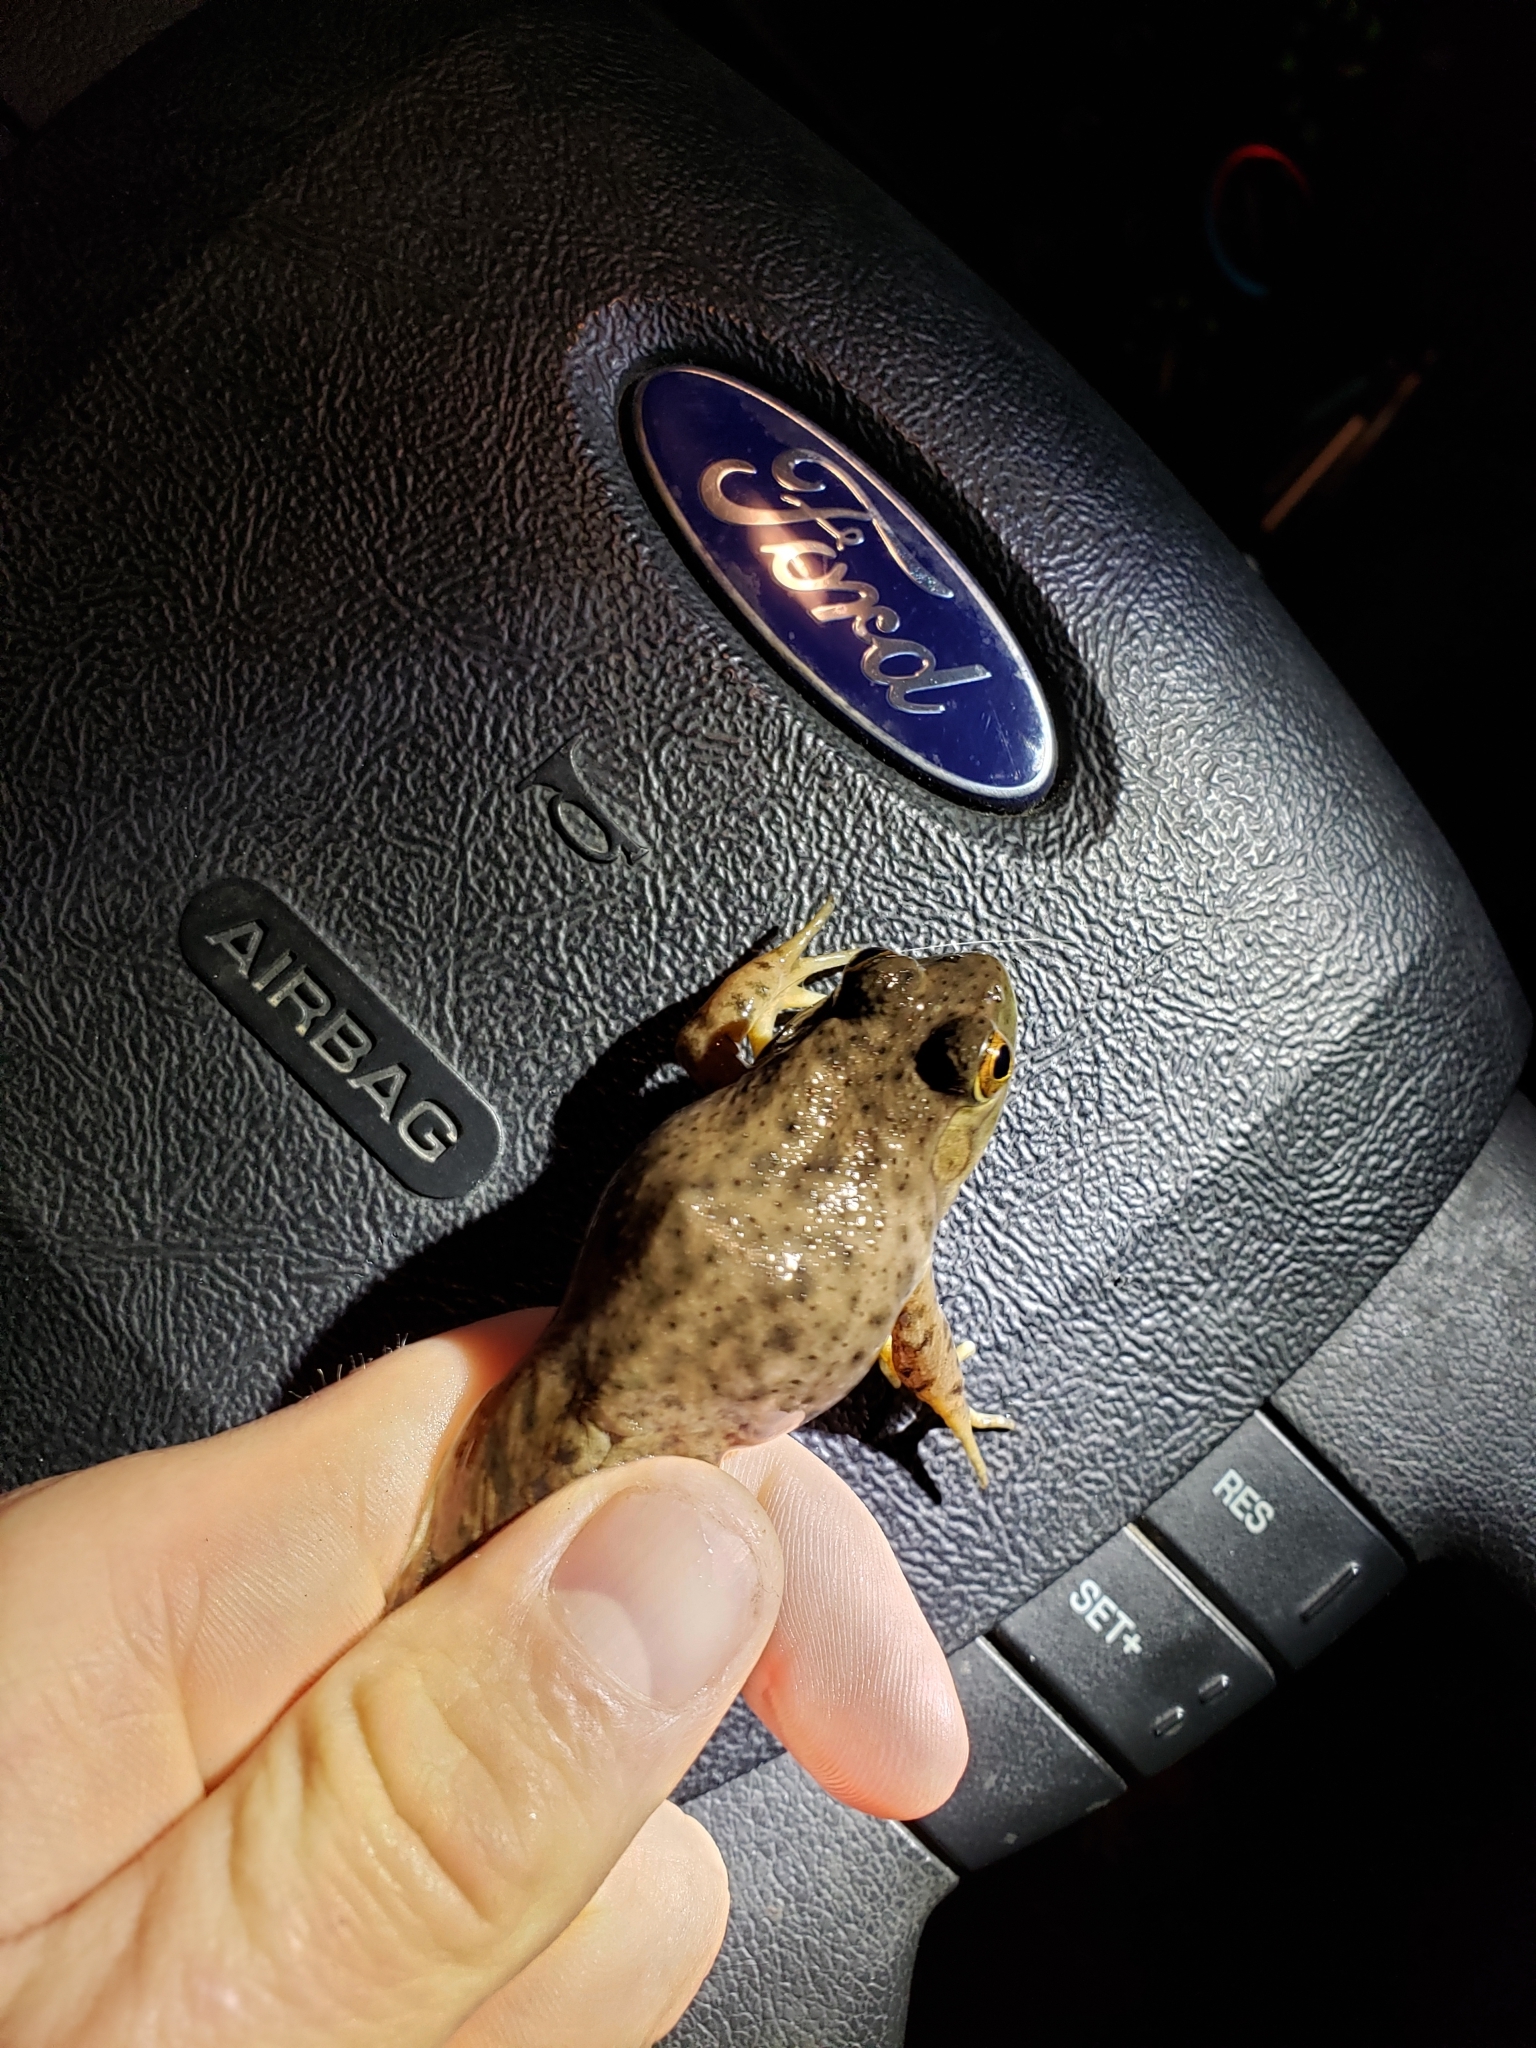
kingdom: Animalia
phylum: Chordata
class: Amphibia
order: Anura
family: Ranidae
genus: Lithobates
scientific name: Lithobates catesbeianus
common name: American bullfrog
